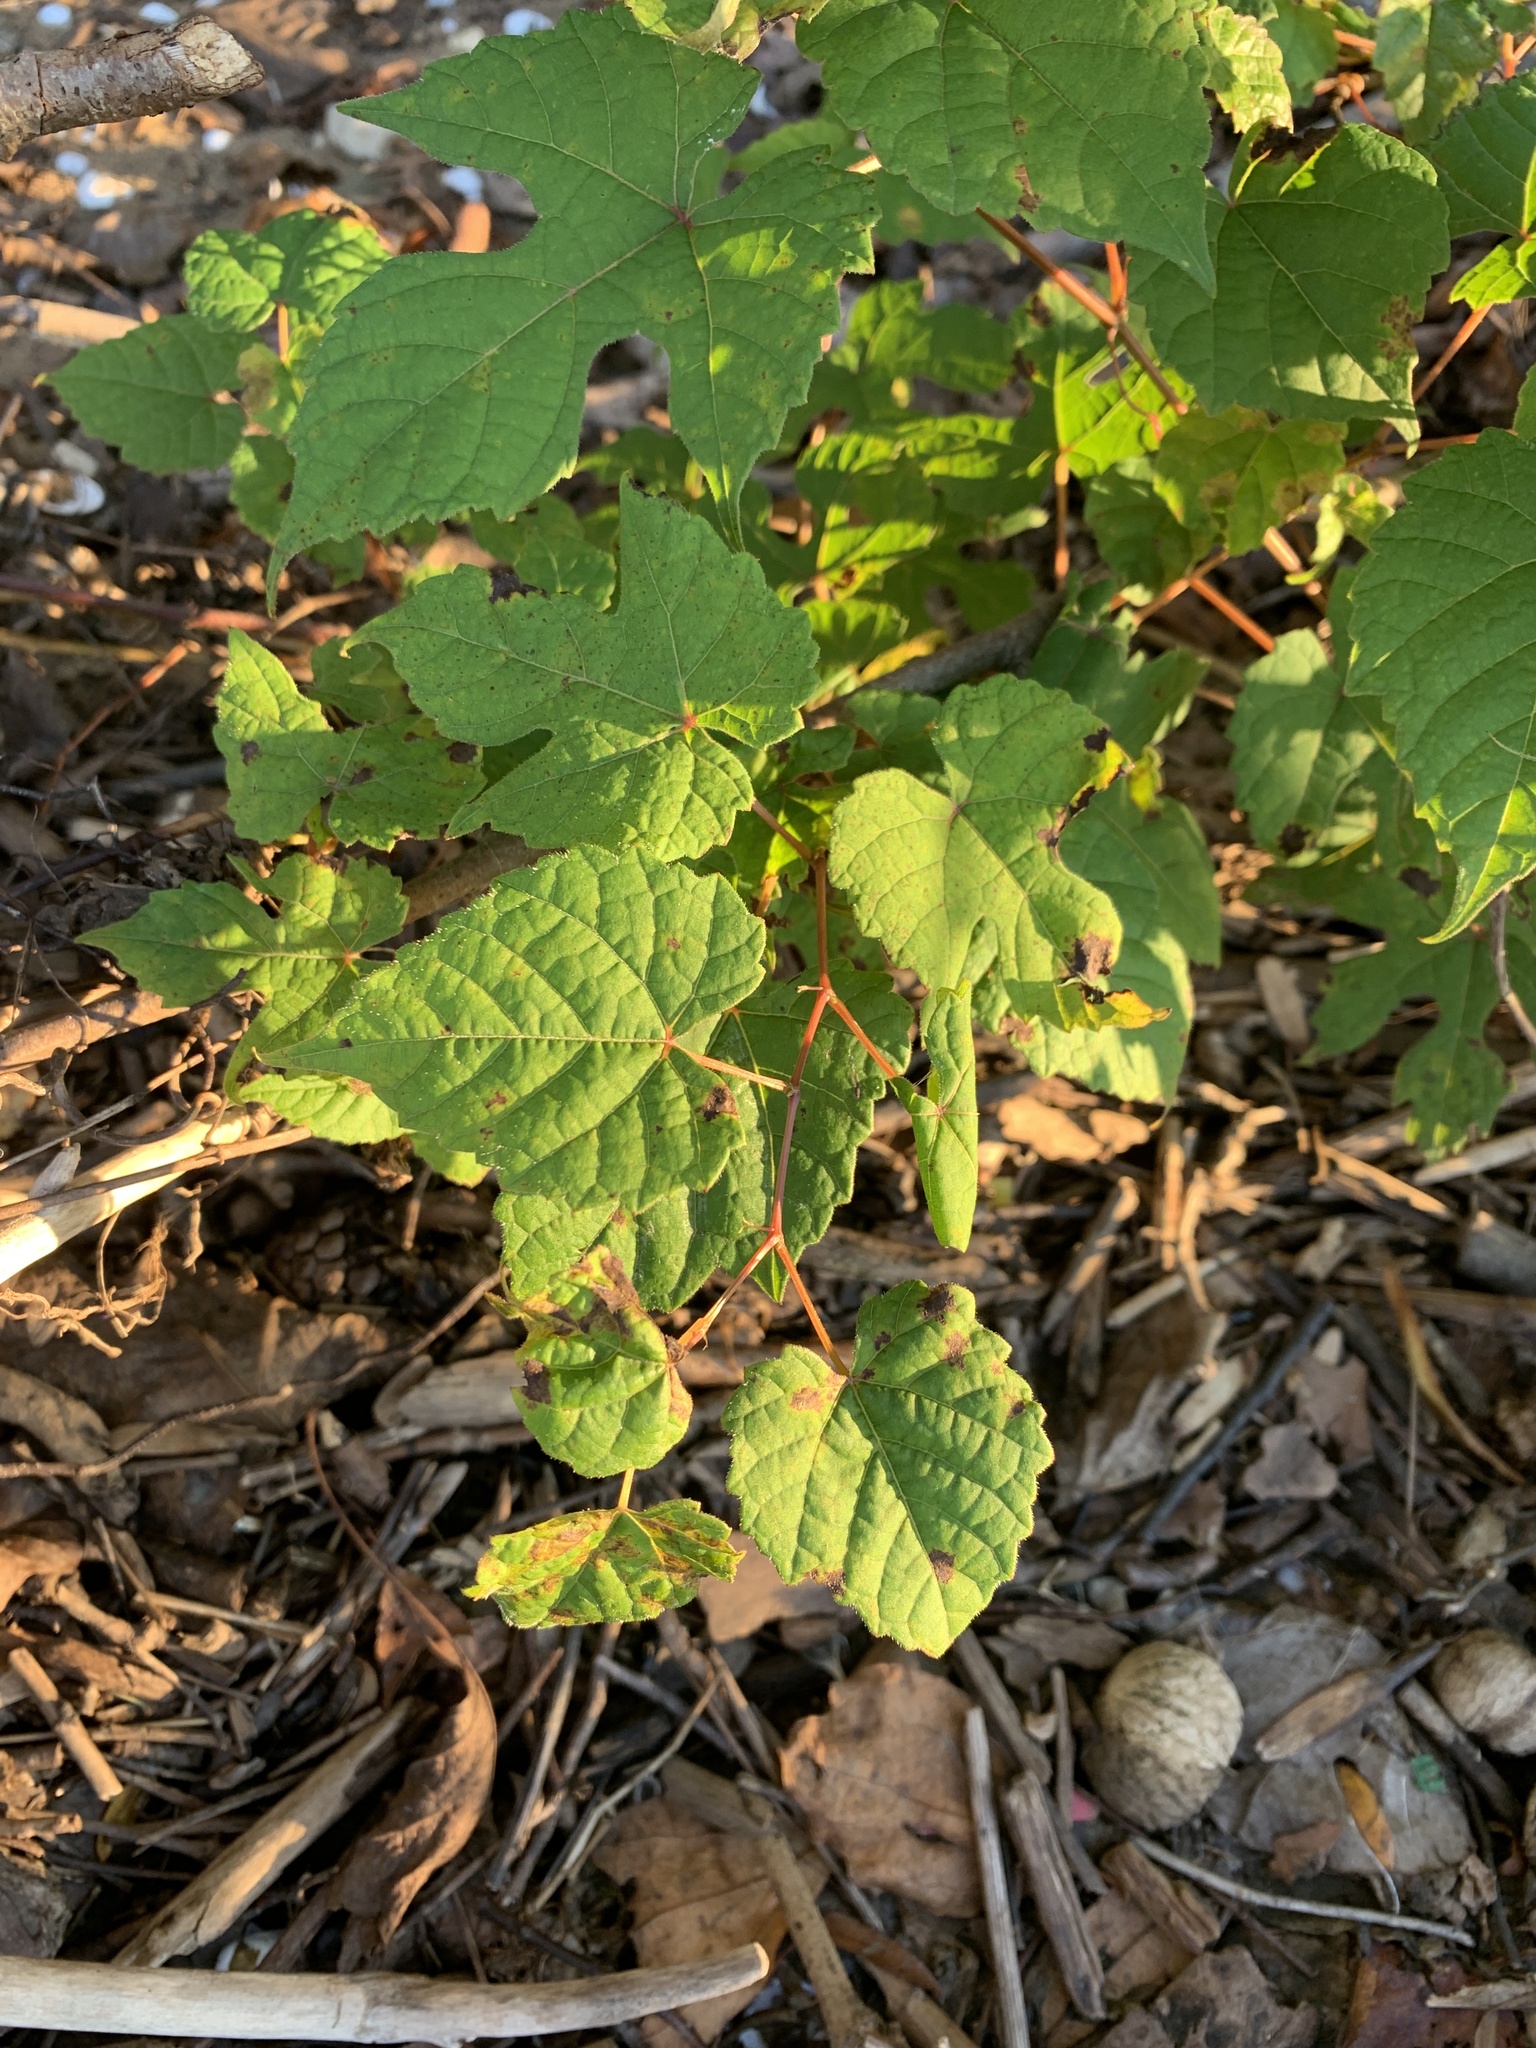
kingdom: Plantae
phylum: Tracheophyta
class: Magnoliopsida
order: Vitales
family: Vitaceae
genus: Ampelopsis
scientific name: Ampelopsis glandulosa
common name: Amur peppervine
